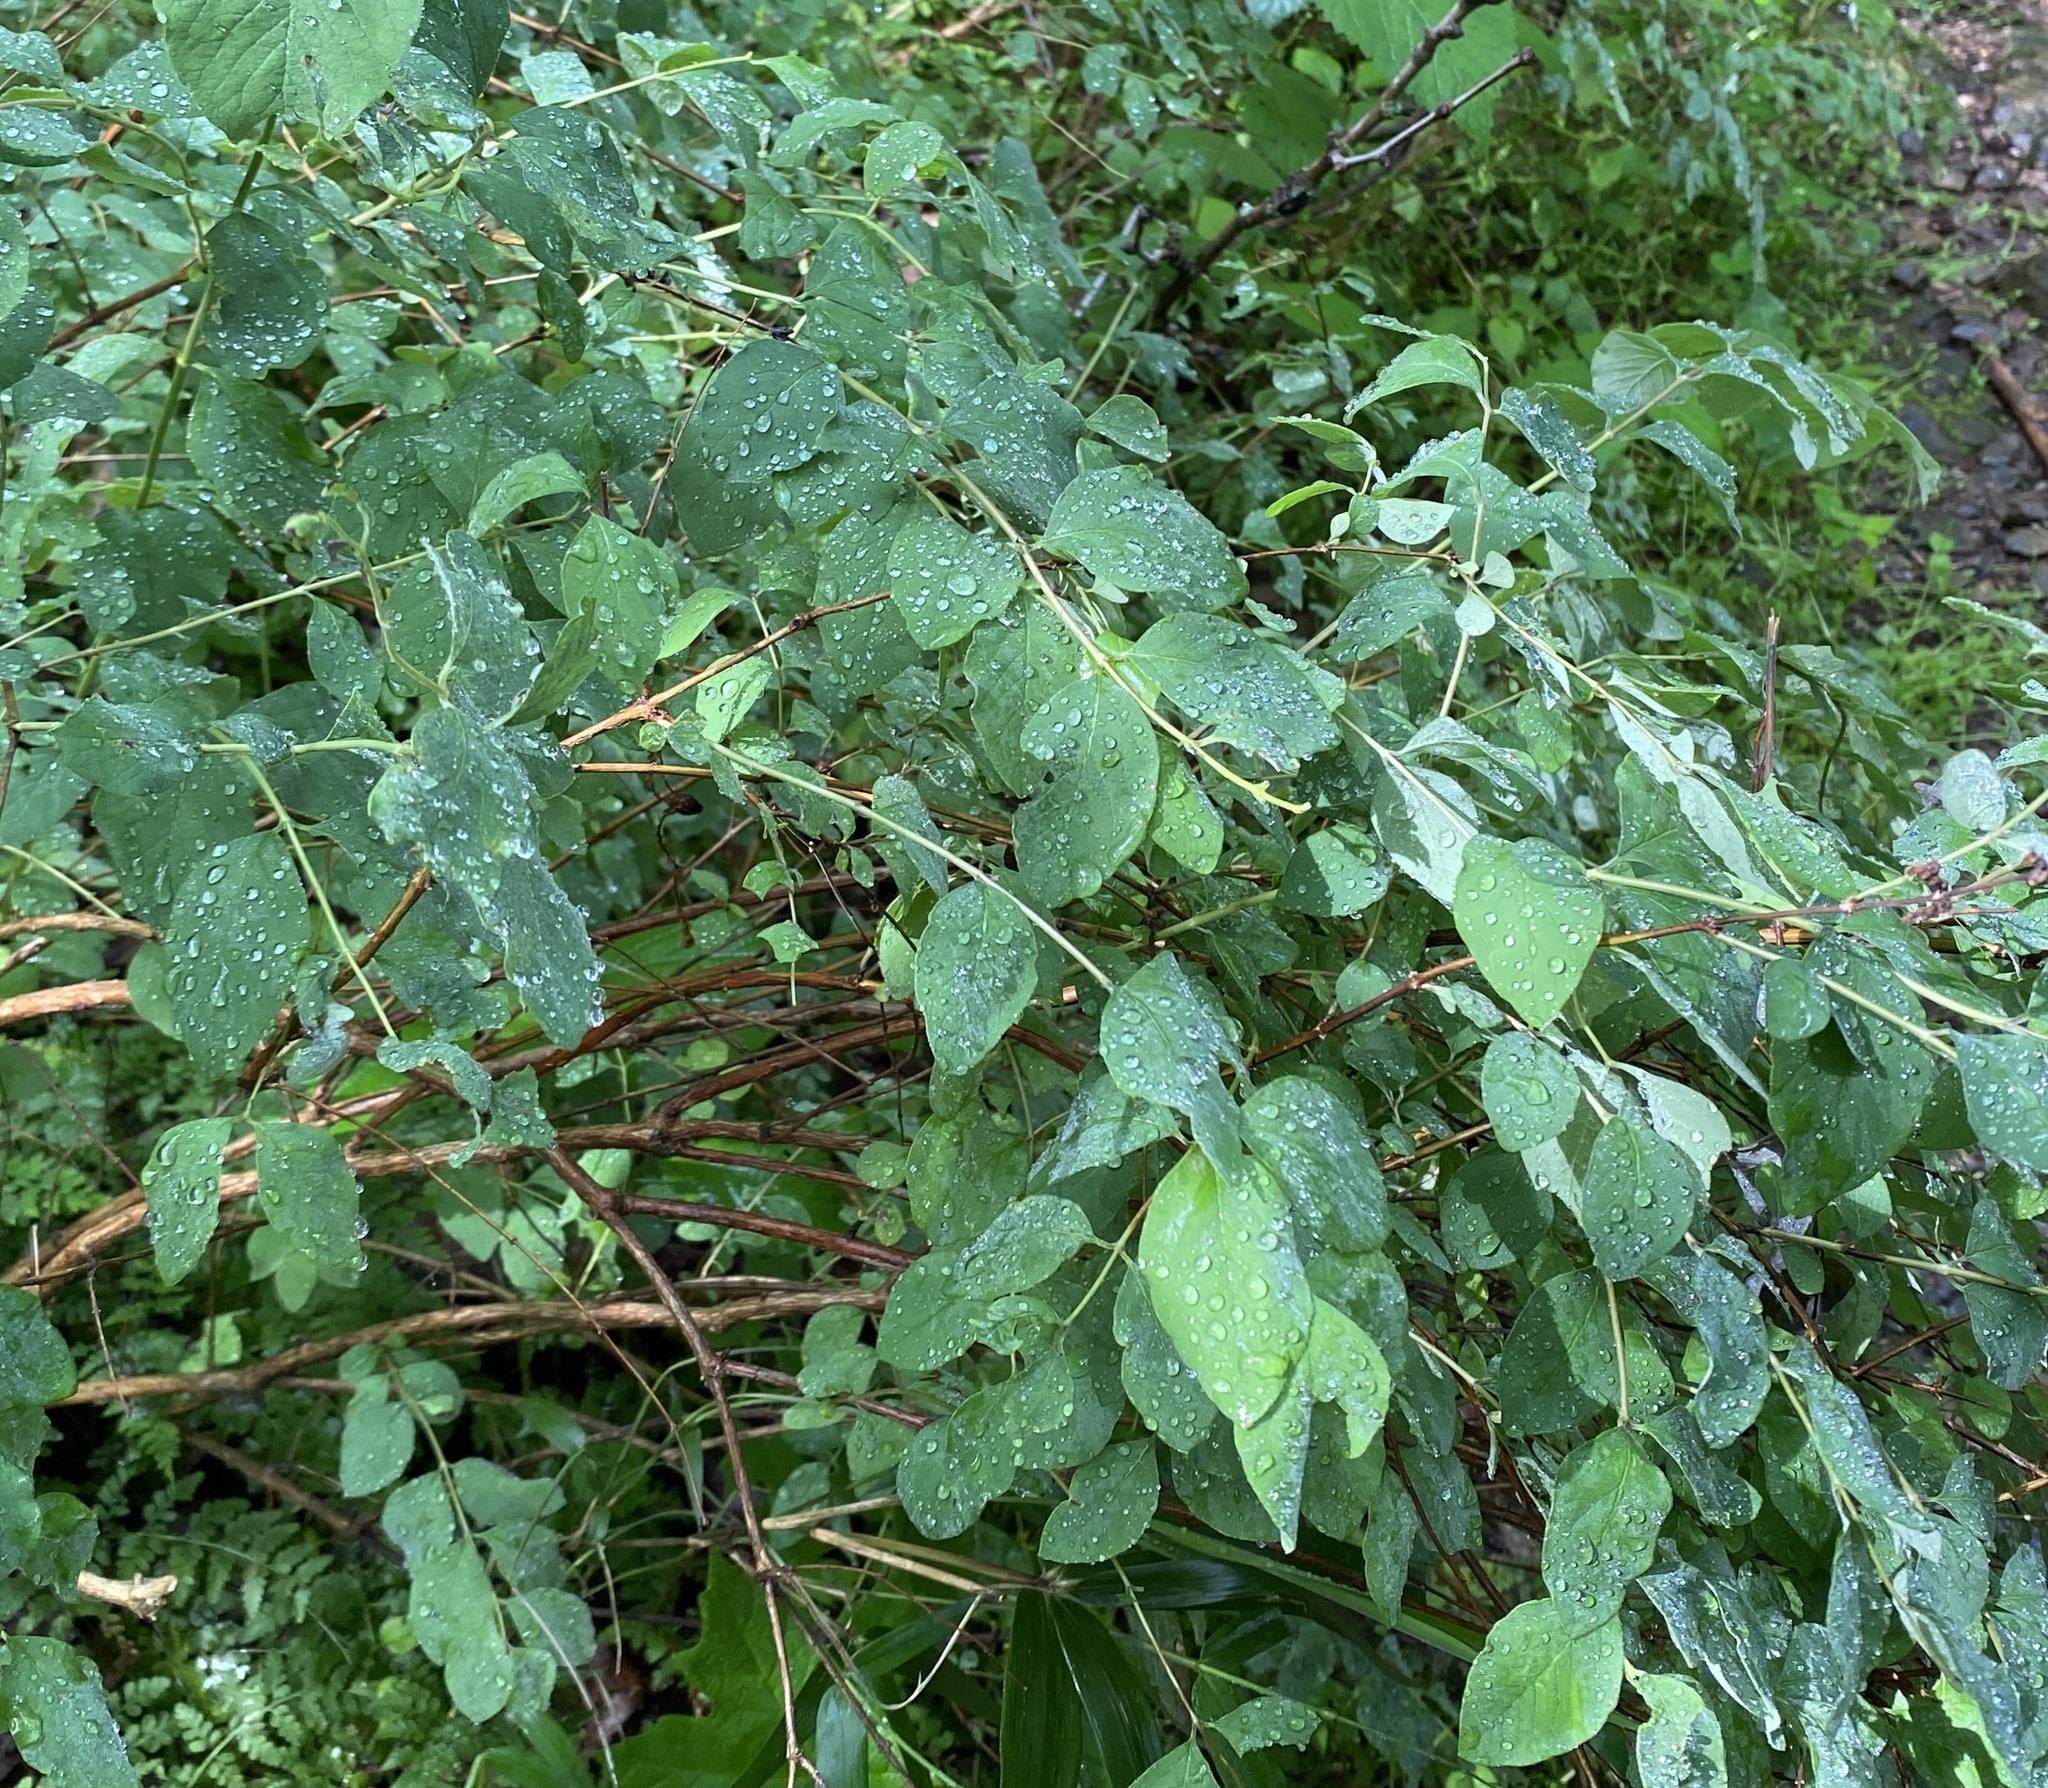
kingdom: Plantae
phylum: Tracheophyta
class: Magnoliopsida
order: Dipsacales
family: Caprifoliaceae
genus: Symphoricarpos
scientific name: Symphoricarpos orbiculatus
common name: Coralberry
